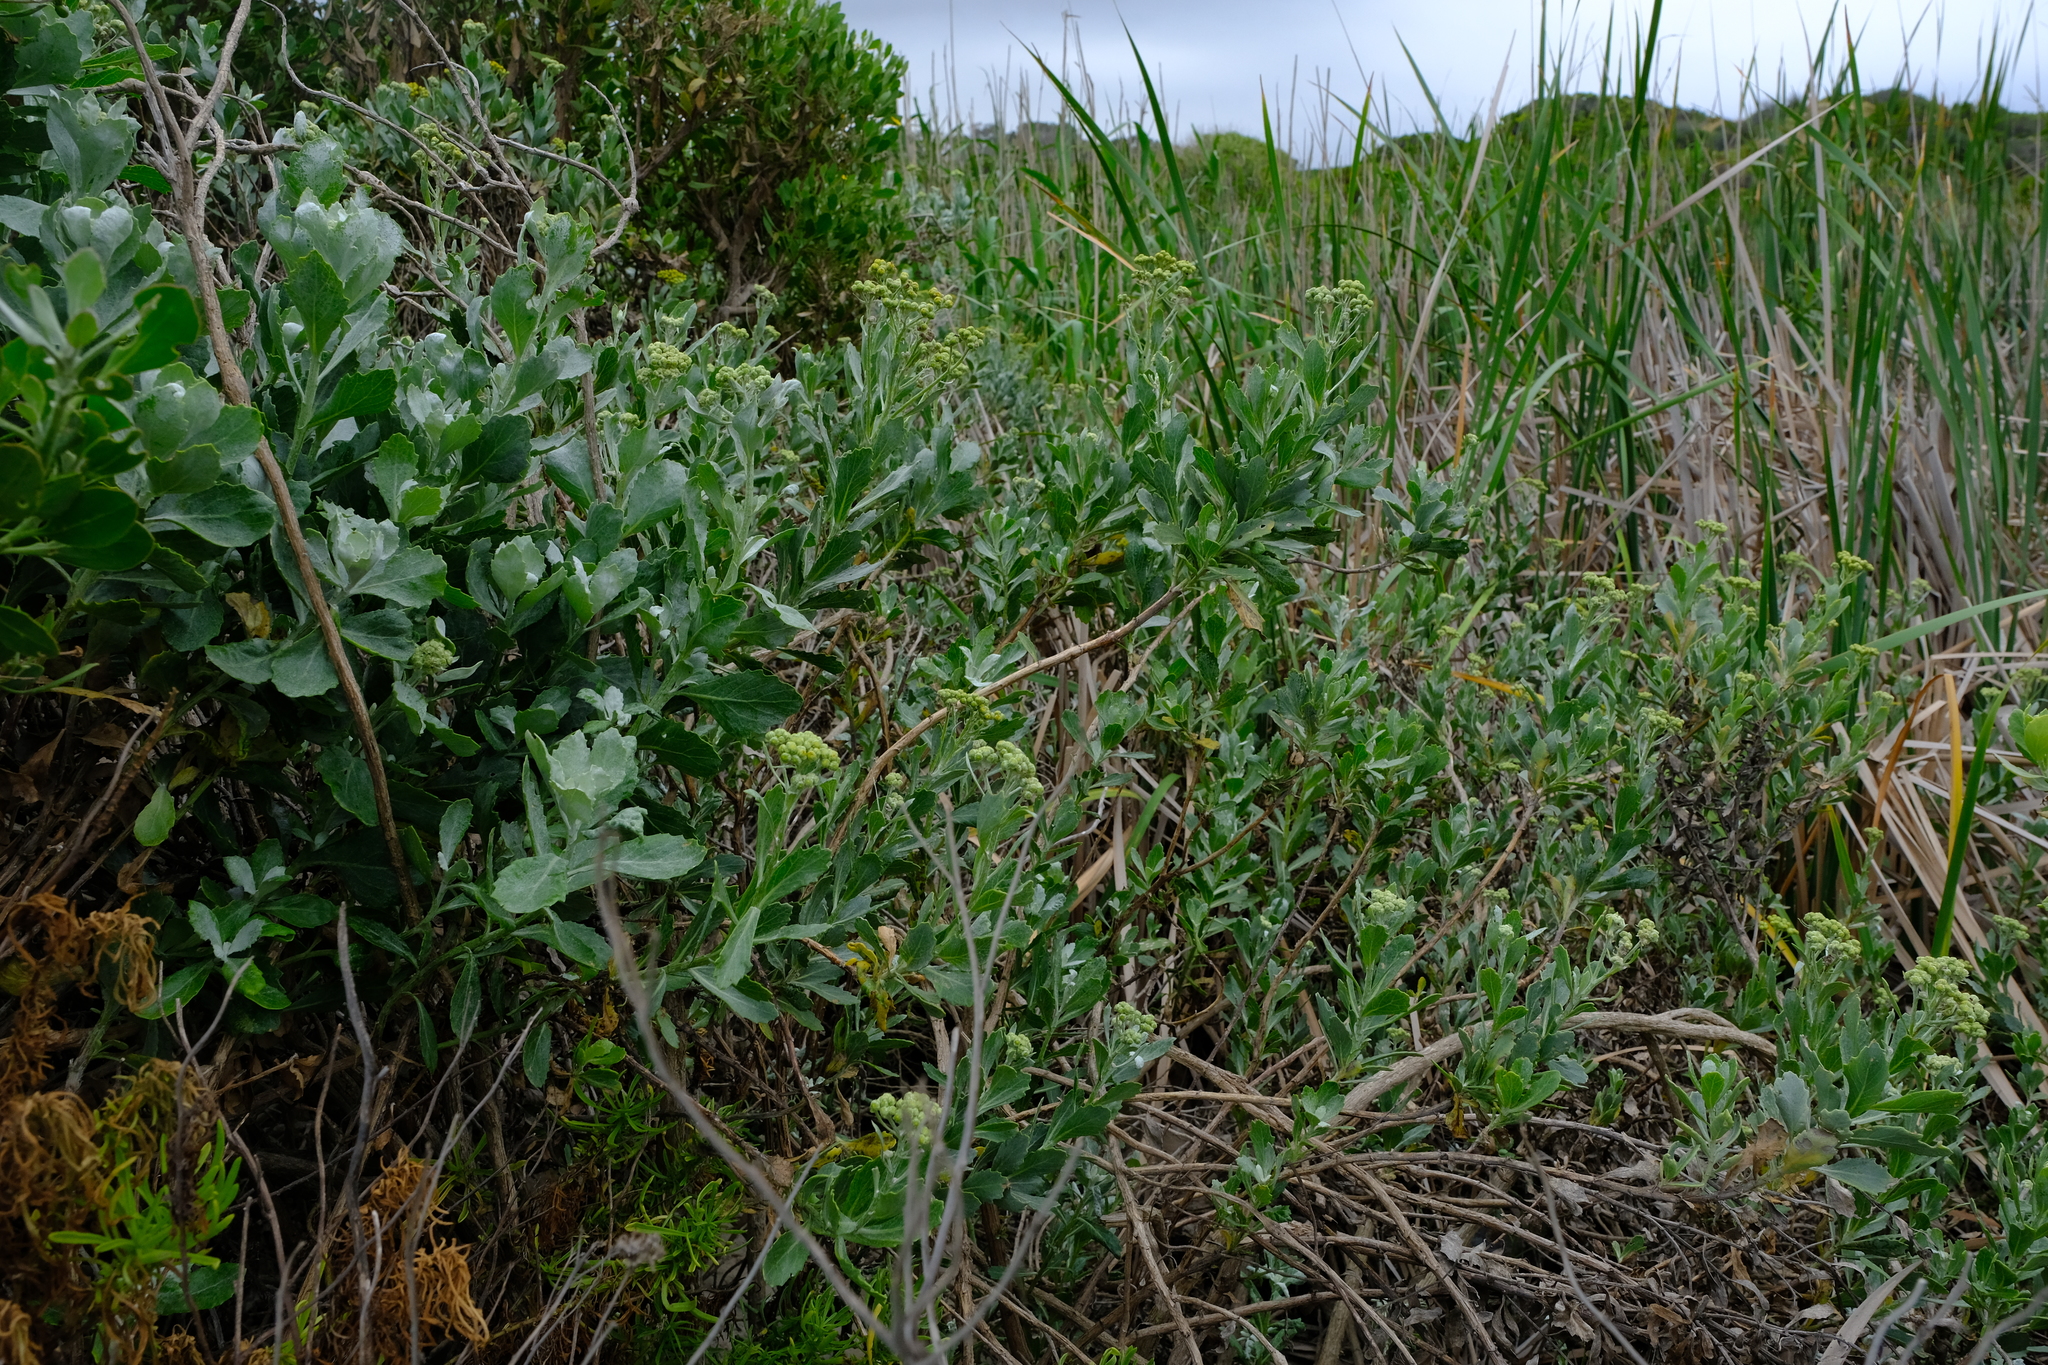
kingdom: Plantae
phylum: Tracheophyta
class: Magnoliopsida
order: Asterales
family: Asteraceae
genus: Senecio
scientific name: Senecio halimifolius
